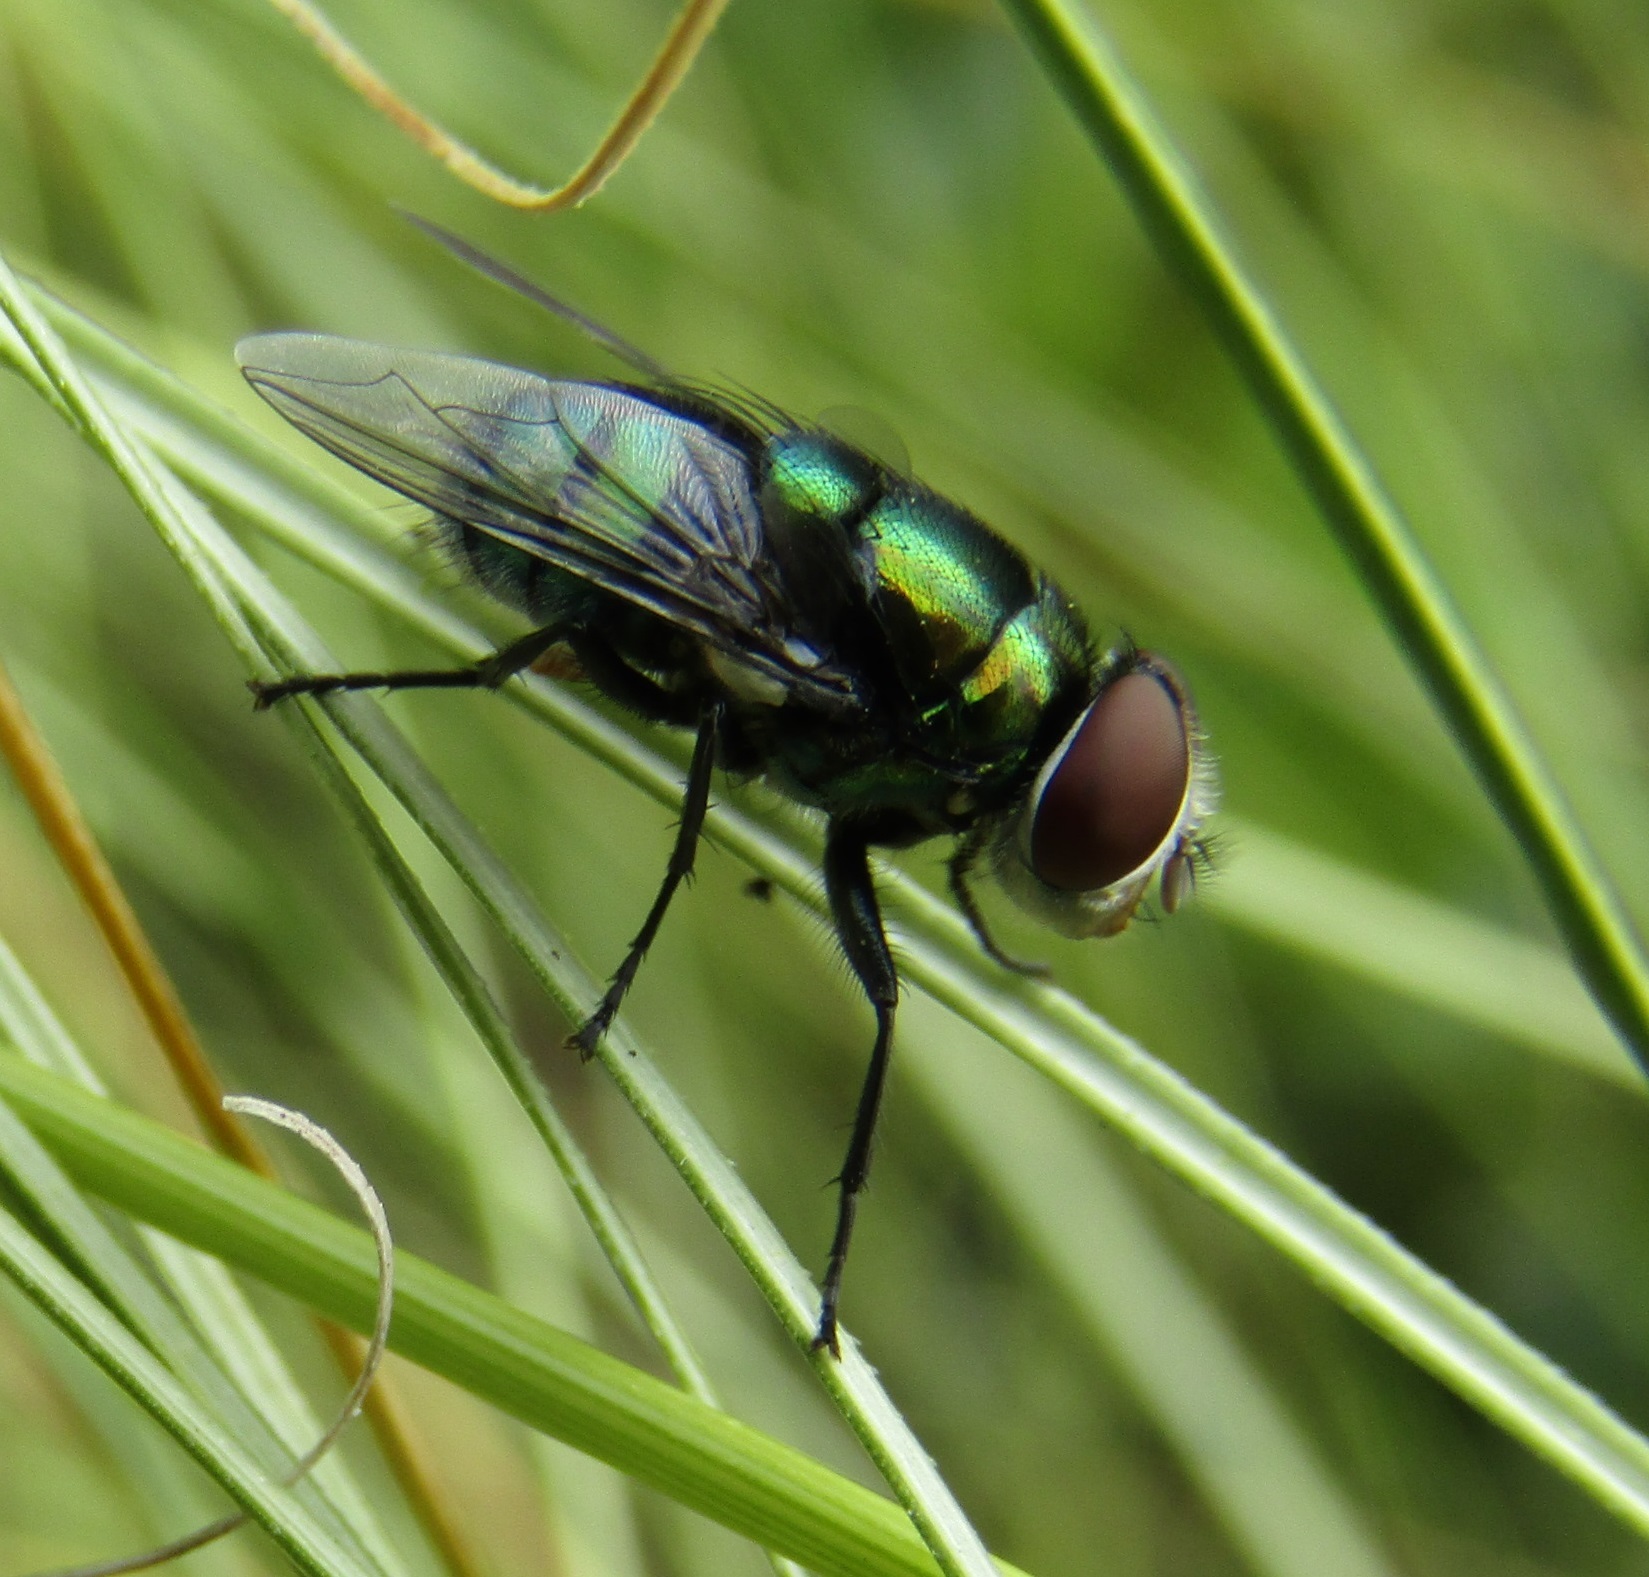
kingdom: Animalia
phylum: Arthropoda
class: Insecta
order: Diptera
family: Calliphoridae
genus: Chrysomya
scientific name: Chrysomya rufifacies
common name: Blow fly
